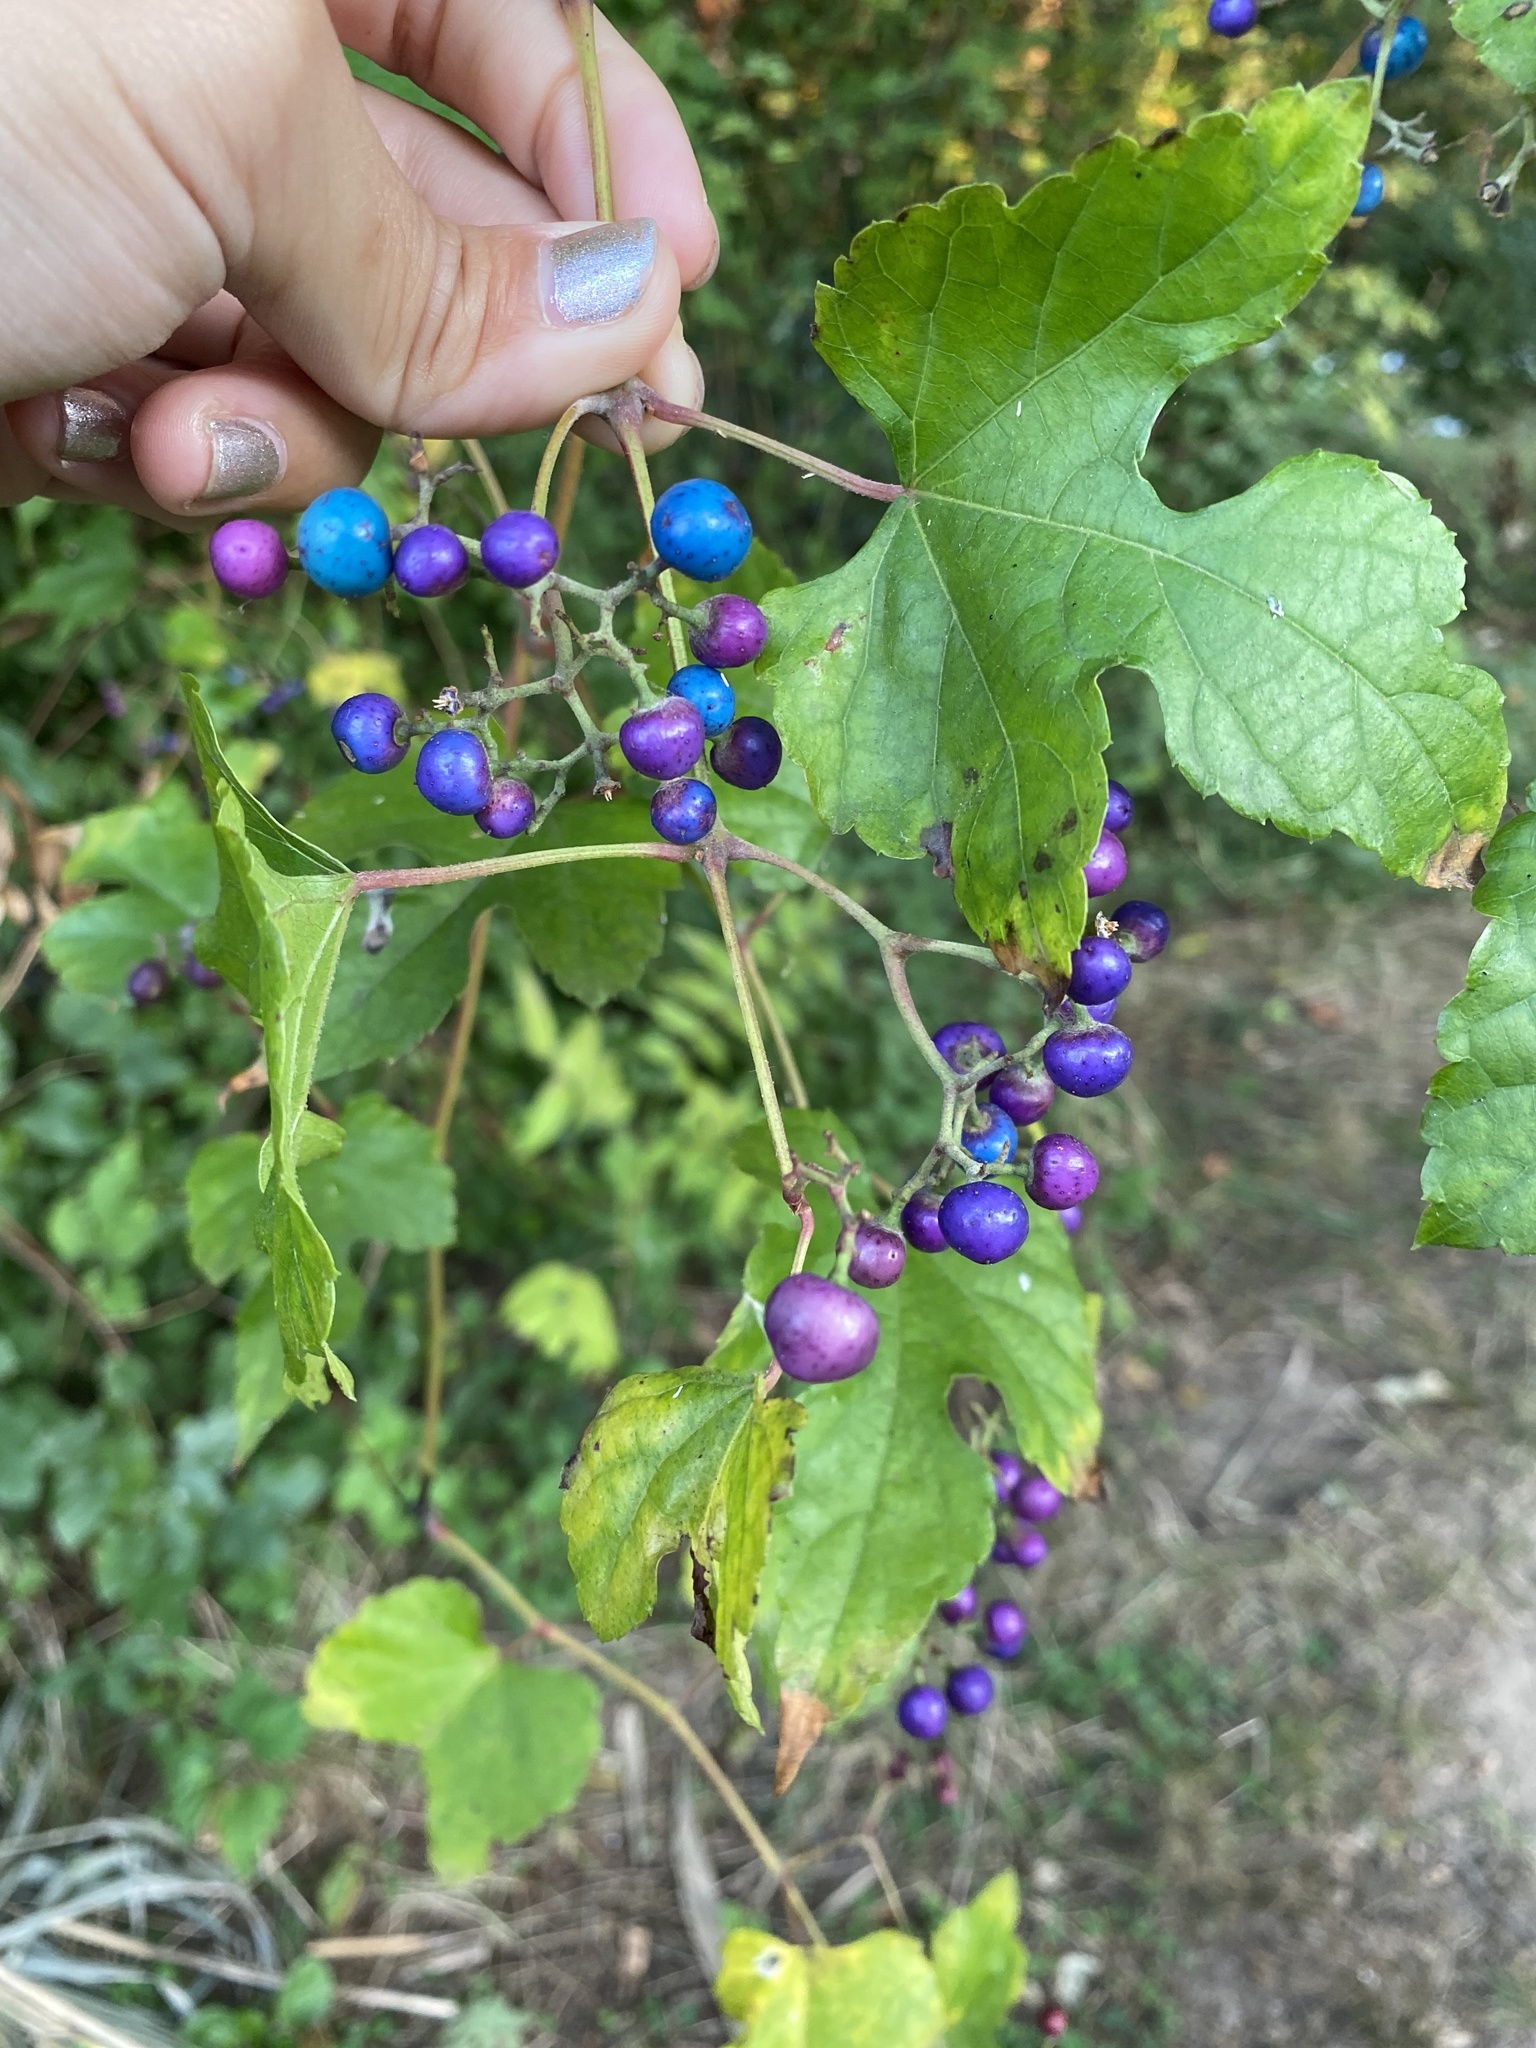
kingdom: Plantae
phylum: Tracheophyta
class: Magnoliopsida
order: Vitales
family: Vitaceae
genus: Ampelopsis
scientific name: Ampelopsis glandulosa
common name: Amur peppervine
